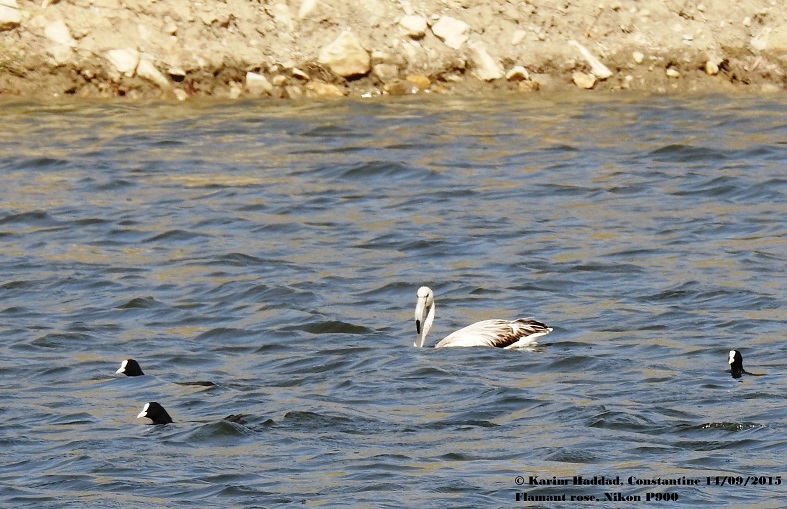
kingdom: Animalia
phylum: Chordata
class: Aves
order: Phoenicopteriformes
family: Phoenicopteridae
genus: Phoenicopterus
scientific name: Phoenicopterus roseus
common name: Greater flamingo
